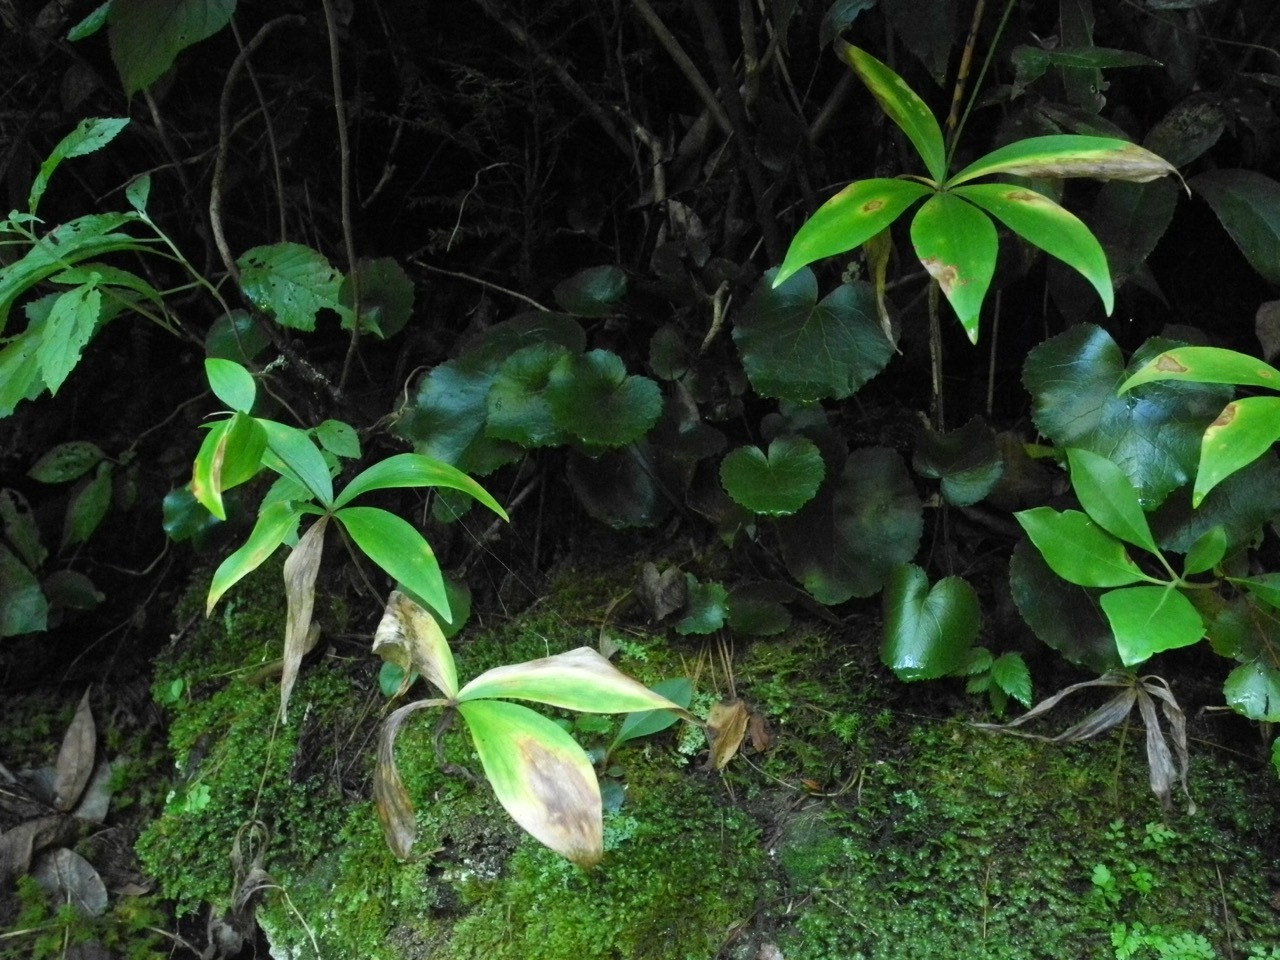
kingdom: Plantae
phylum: Tracheophyta
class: Liliopsida
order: Liliales
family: Liliaceae
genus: Medeola
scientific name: Medeola virginiana
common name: Indian cucumber-root
